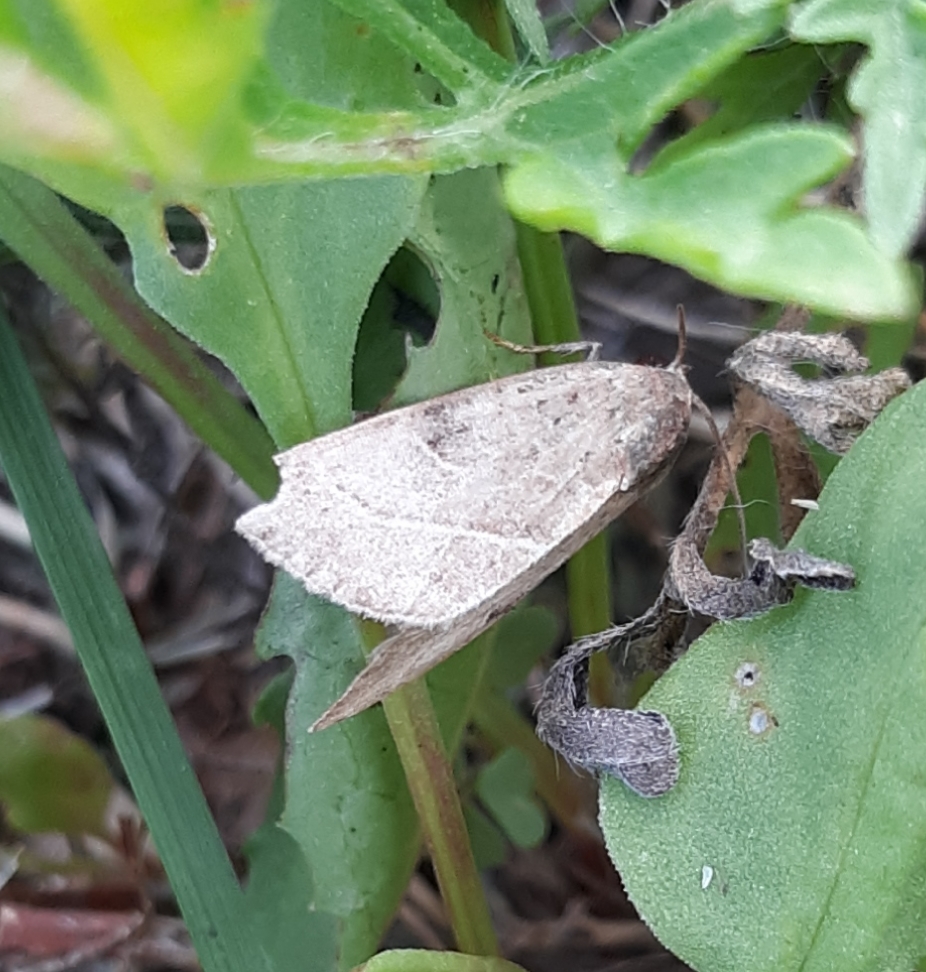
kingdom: Animalia
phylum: Arthropoda
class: Insecta
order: Lepidoptera
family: Noctuidae
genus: Galgula
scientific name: Galgula partita
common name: Wedgeling
